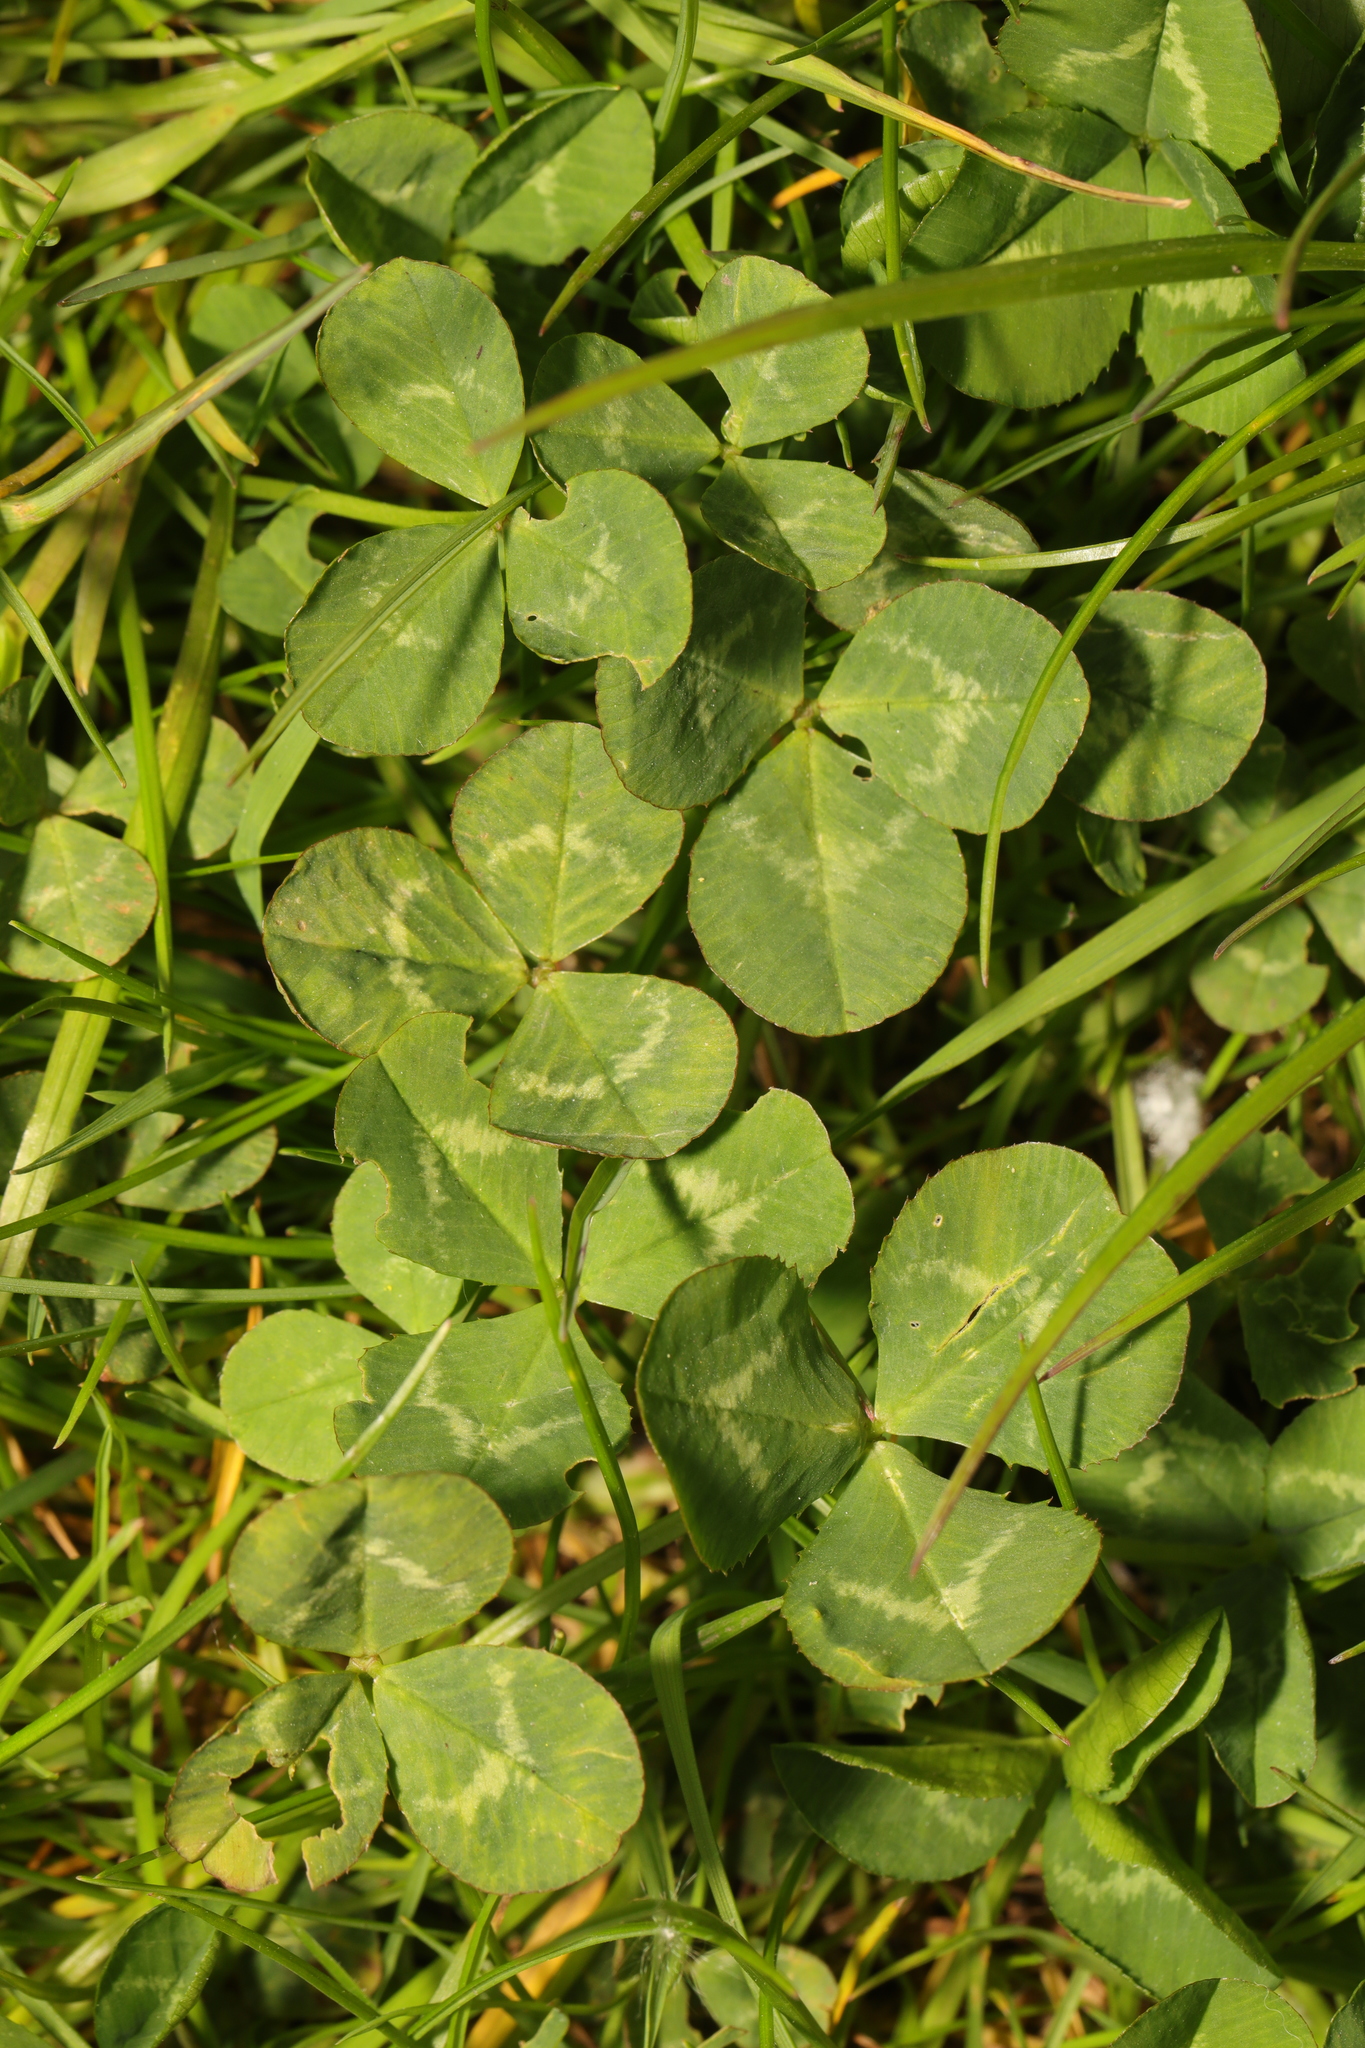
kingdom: Plantae
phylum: Tracheophyta
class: Magnoliopsida
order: Fabales
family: Fabaceae
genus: Trifolium
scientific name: Trifolium repens
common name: White clover
